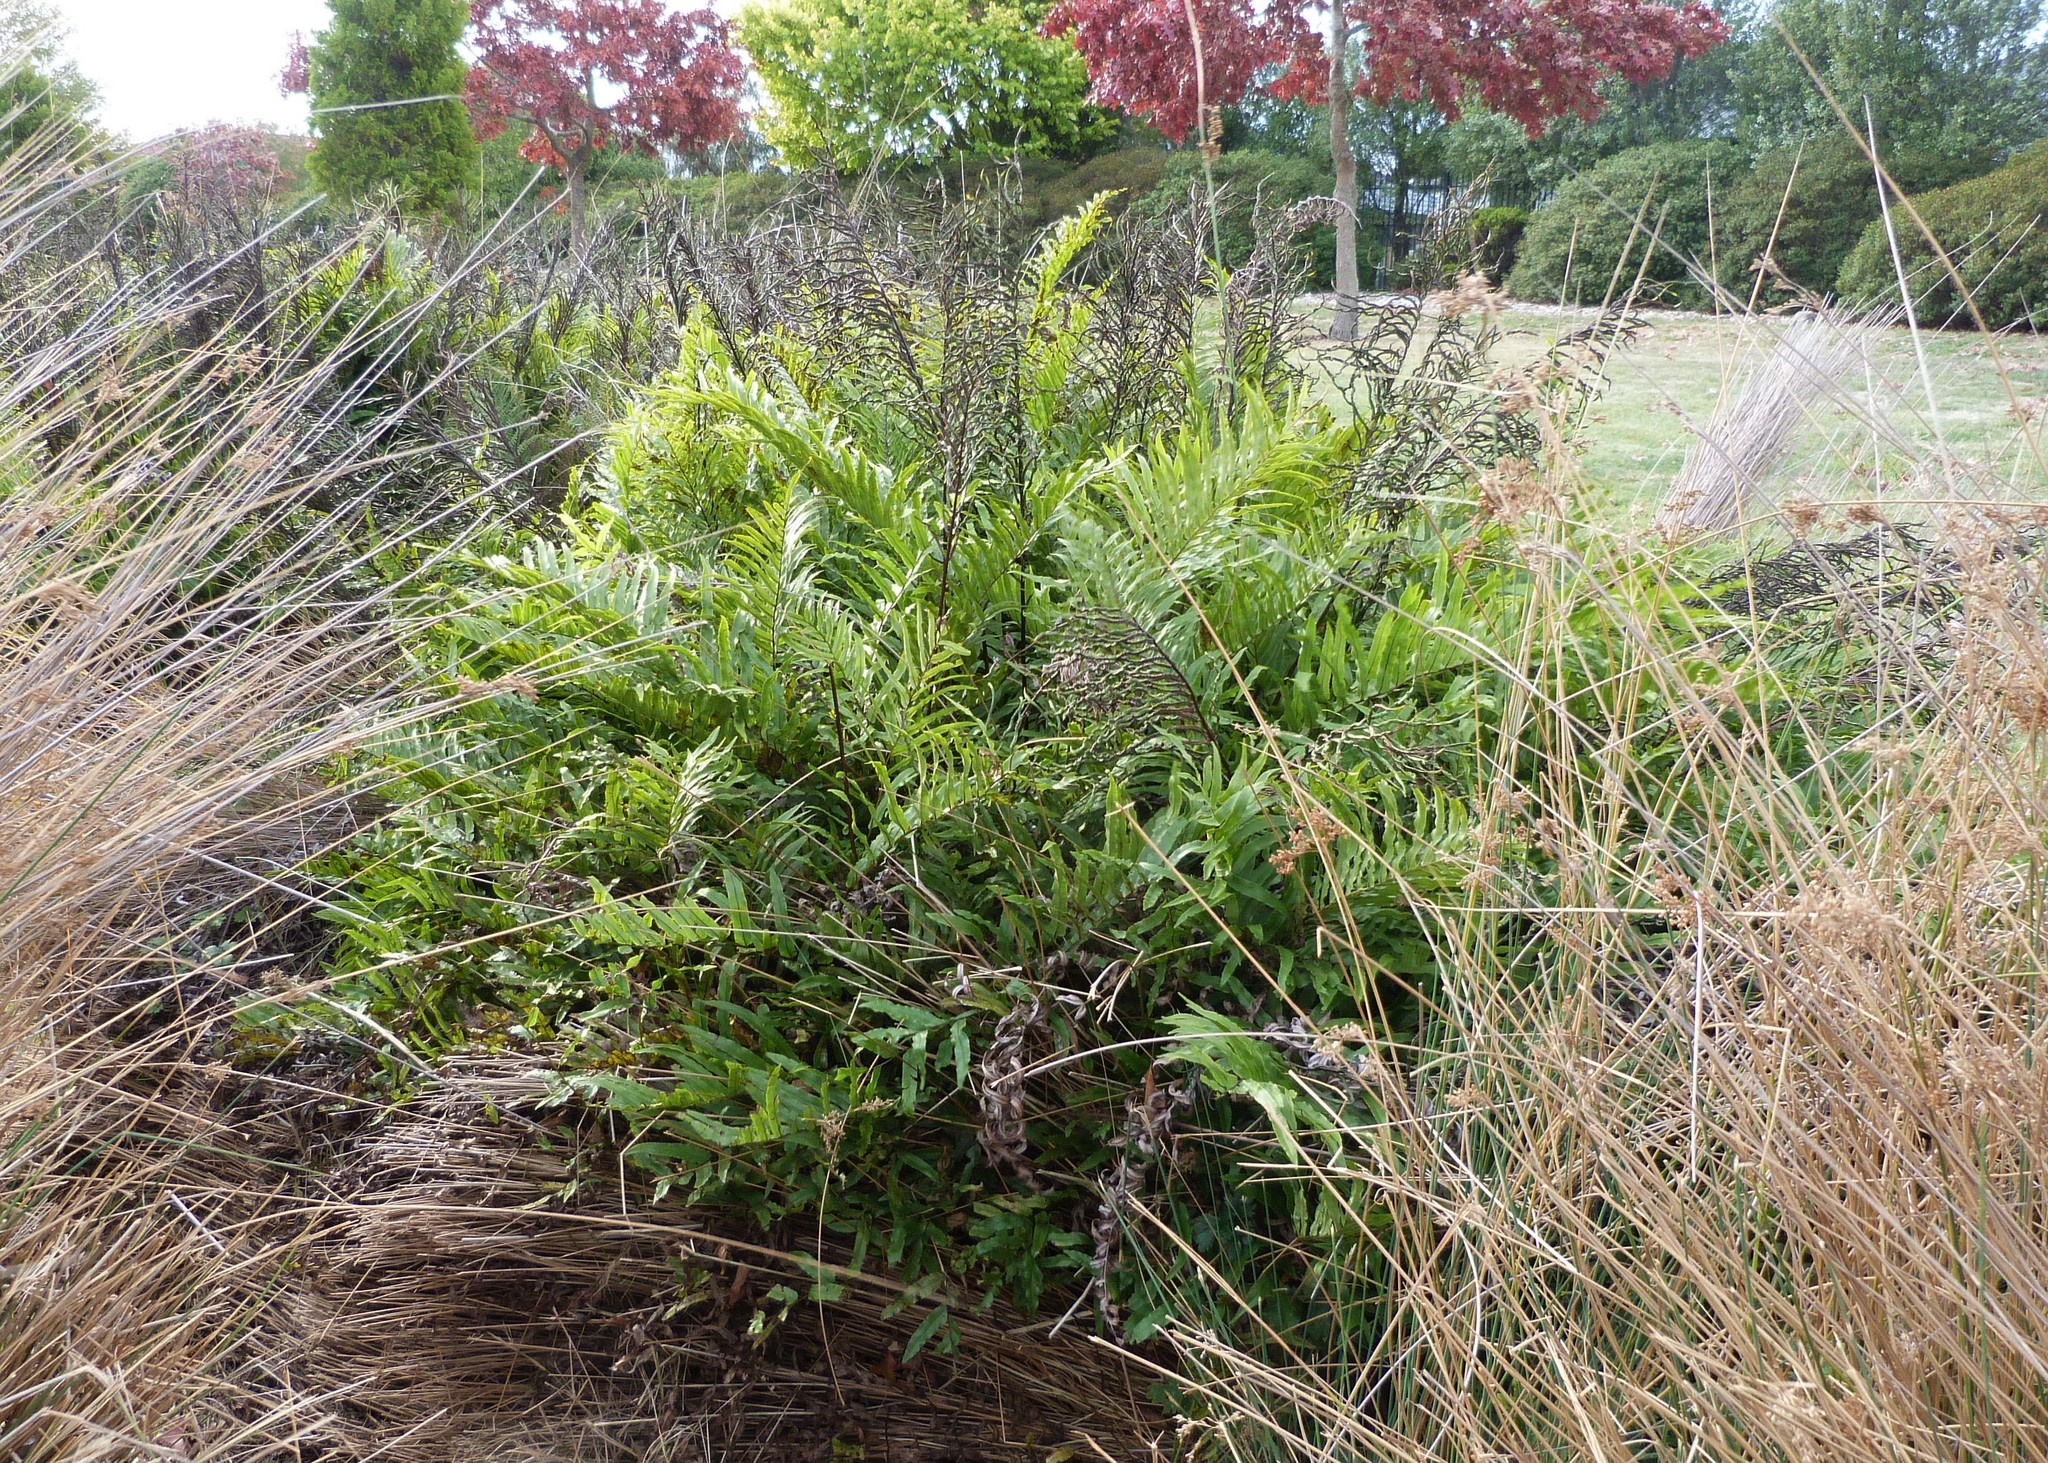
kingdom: Plantae
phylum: Tracheophyta
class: Polypodiopsida
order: Polypodiales
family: Blechnaceae
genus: Parablechnum
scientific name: Parablechnum minus
